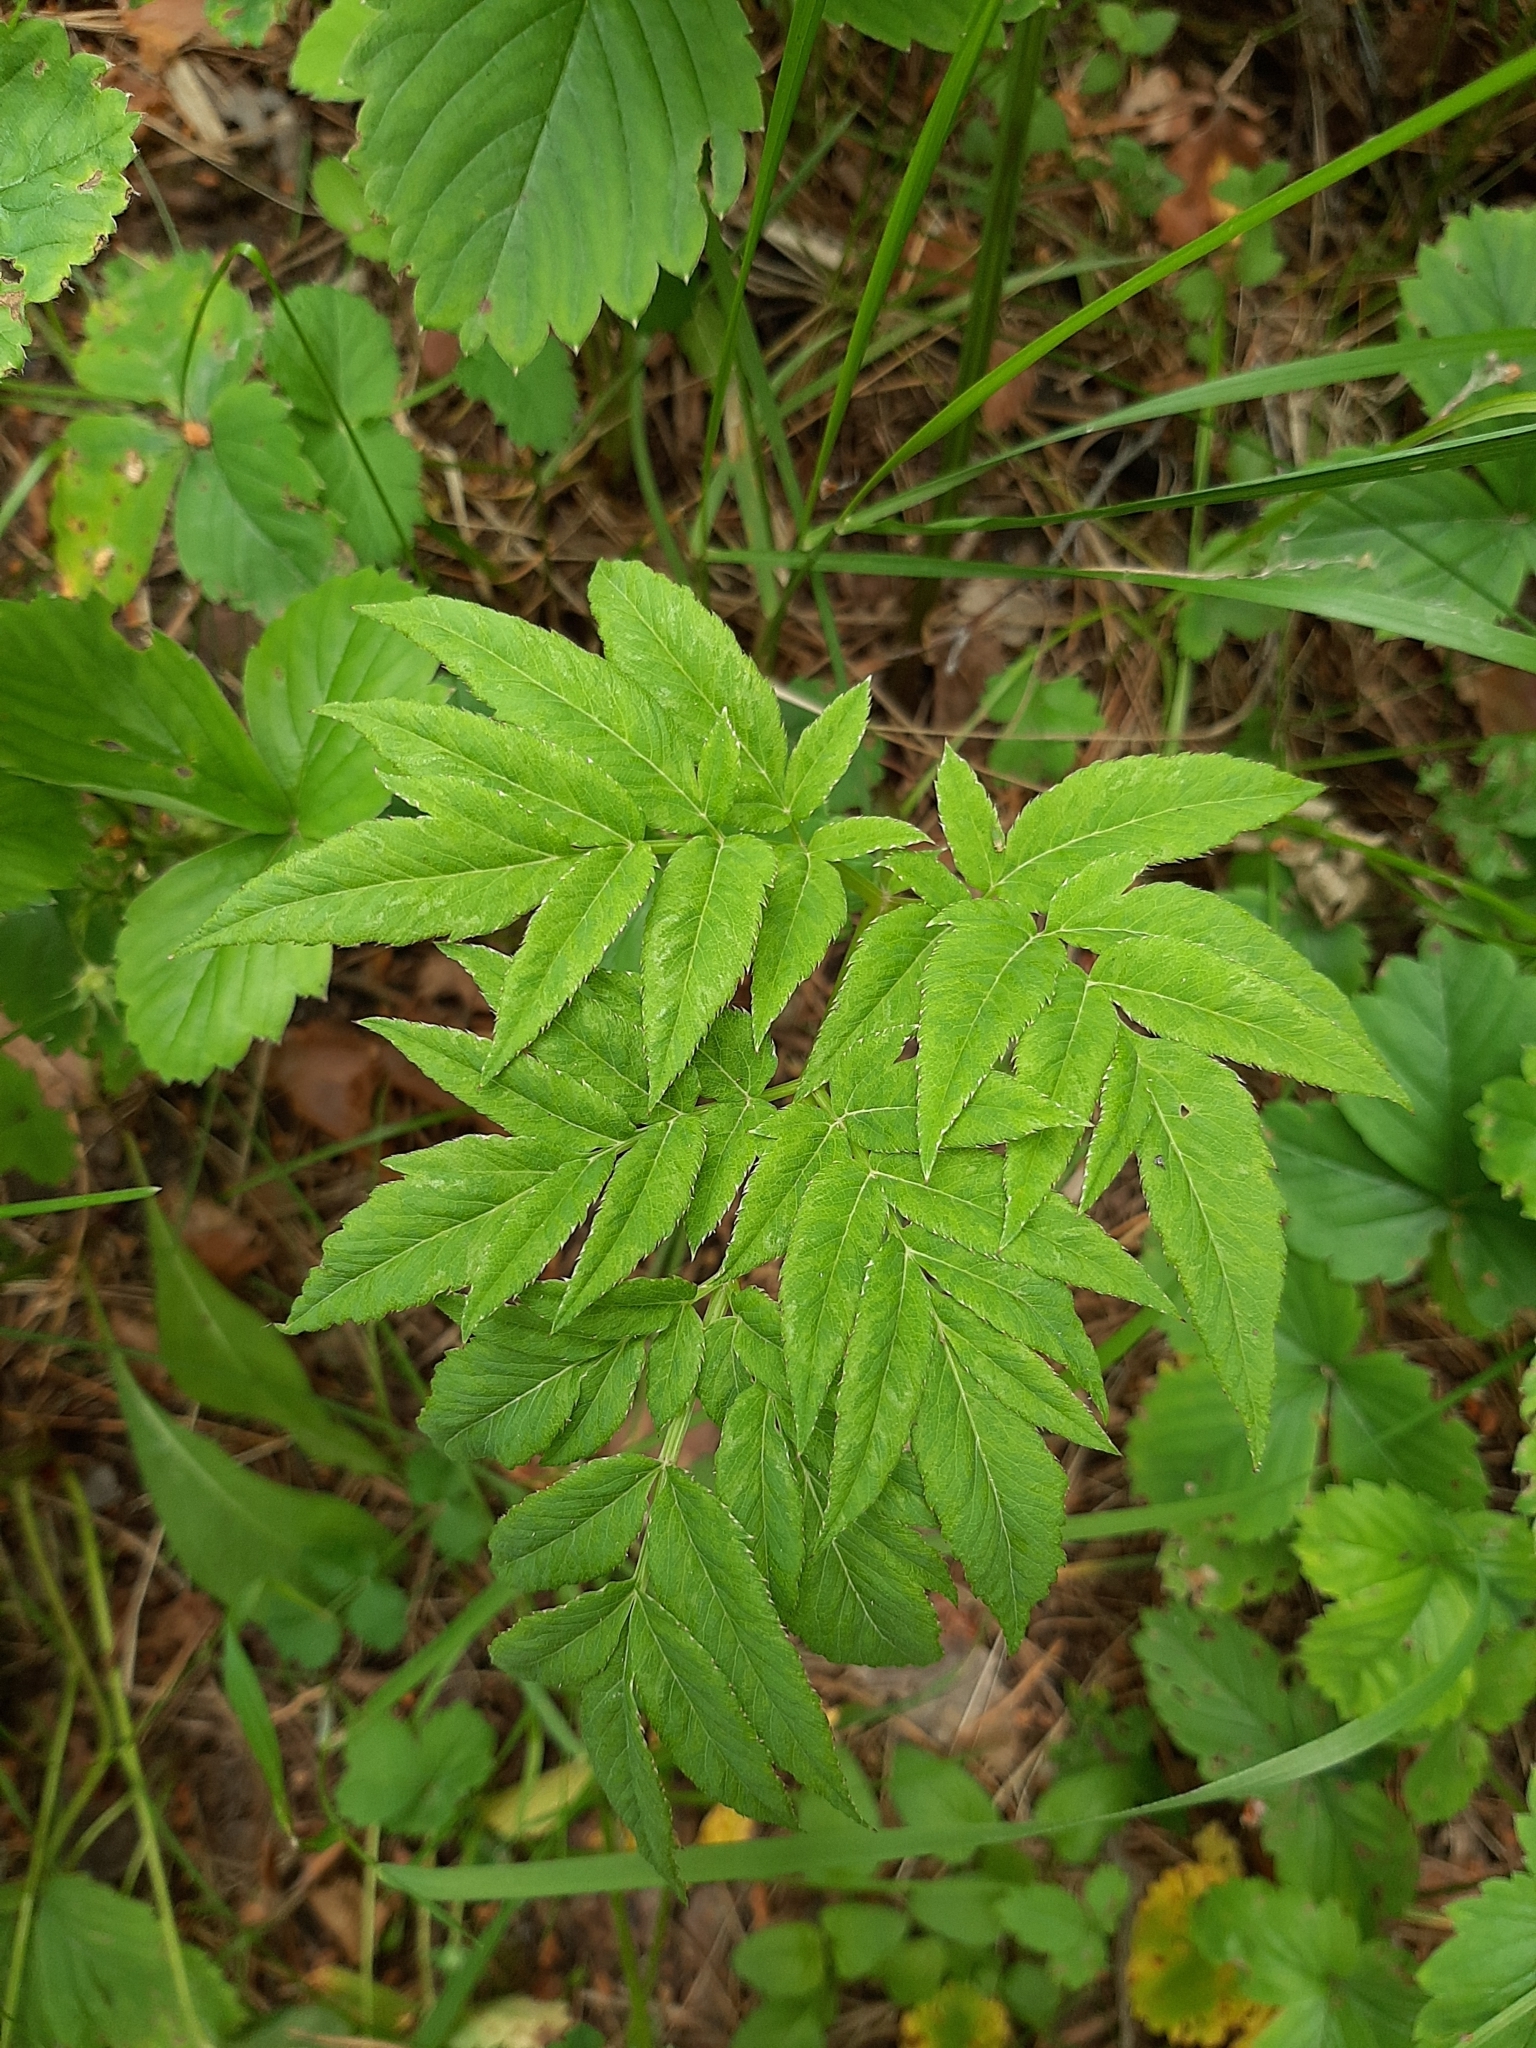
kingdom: Plantae
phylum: Tracheophyta
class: Magnoliopsida
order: Apiales
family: Apiaceae
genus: Angelica
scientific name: Angelica sylvestris
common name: Wild angelica
